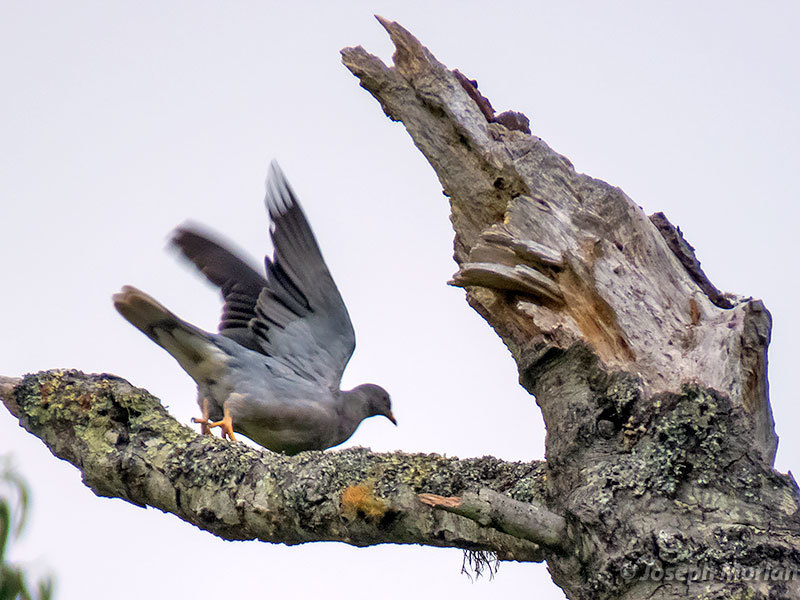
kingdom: Animalia
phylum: Chordata
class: Aves
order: Columbiformes
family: Columbidae
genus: Patagioenas
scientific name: Patagioenas fasciata
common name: Band-tailed pigeon
